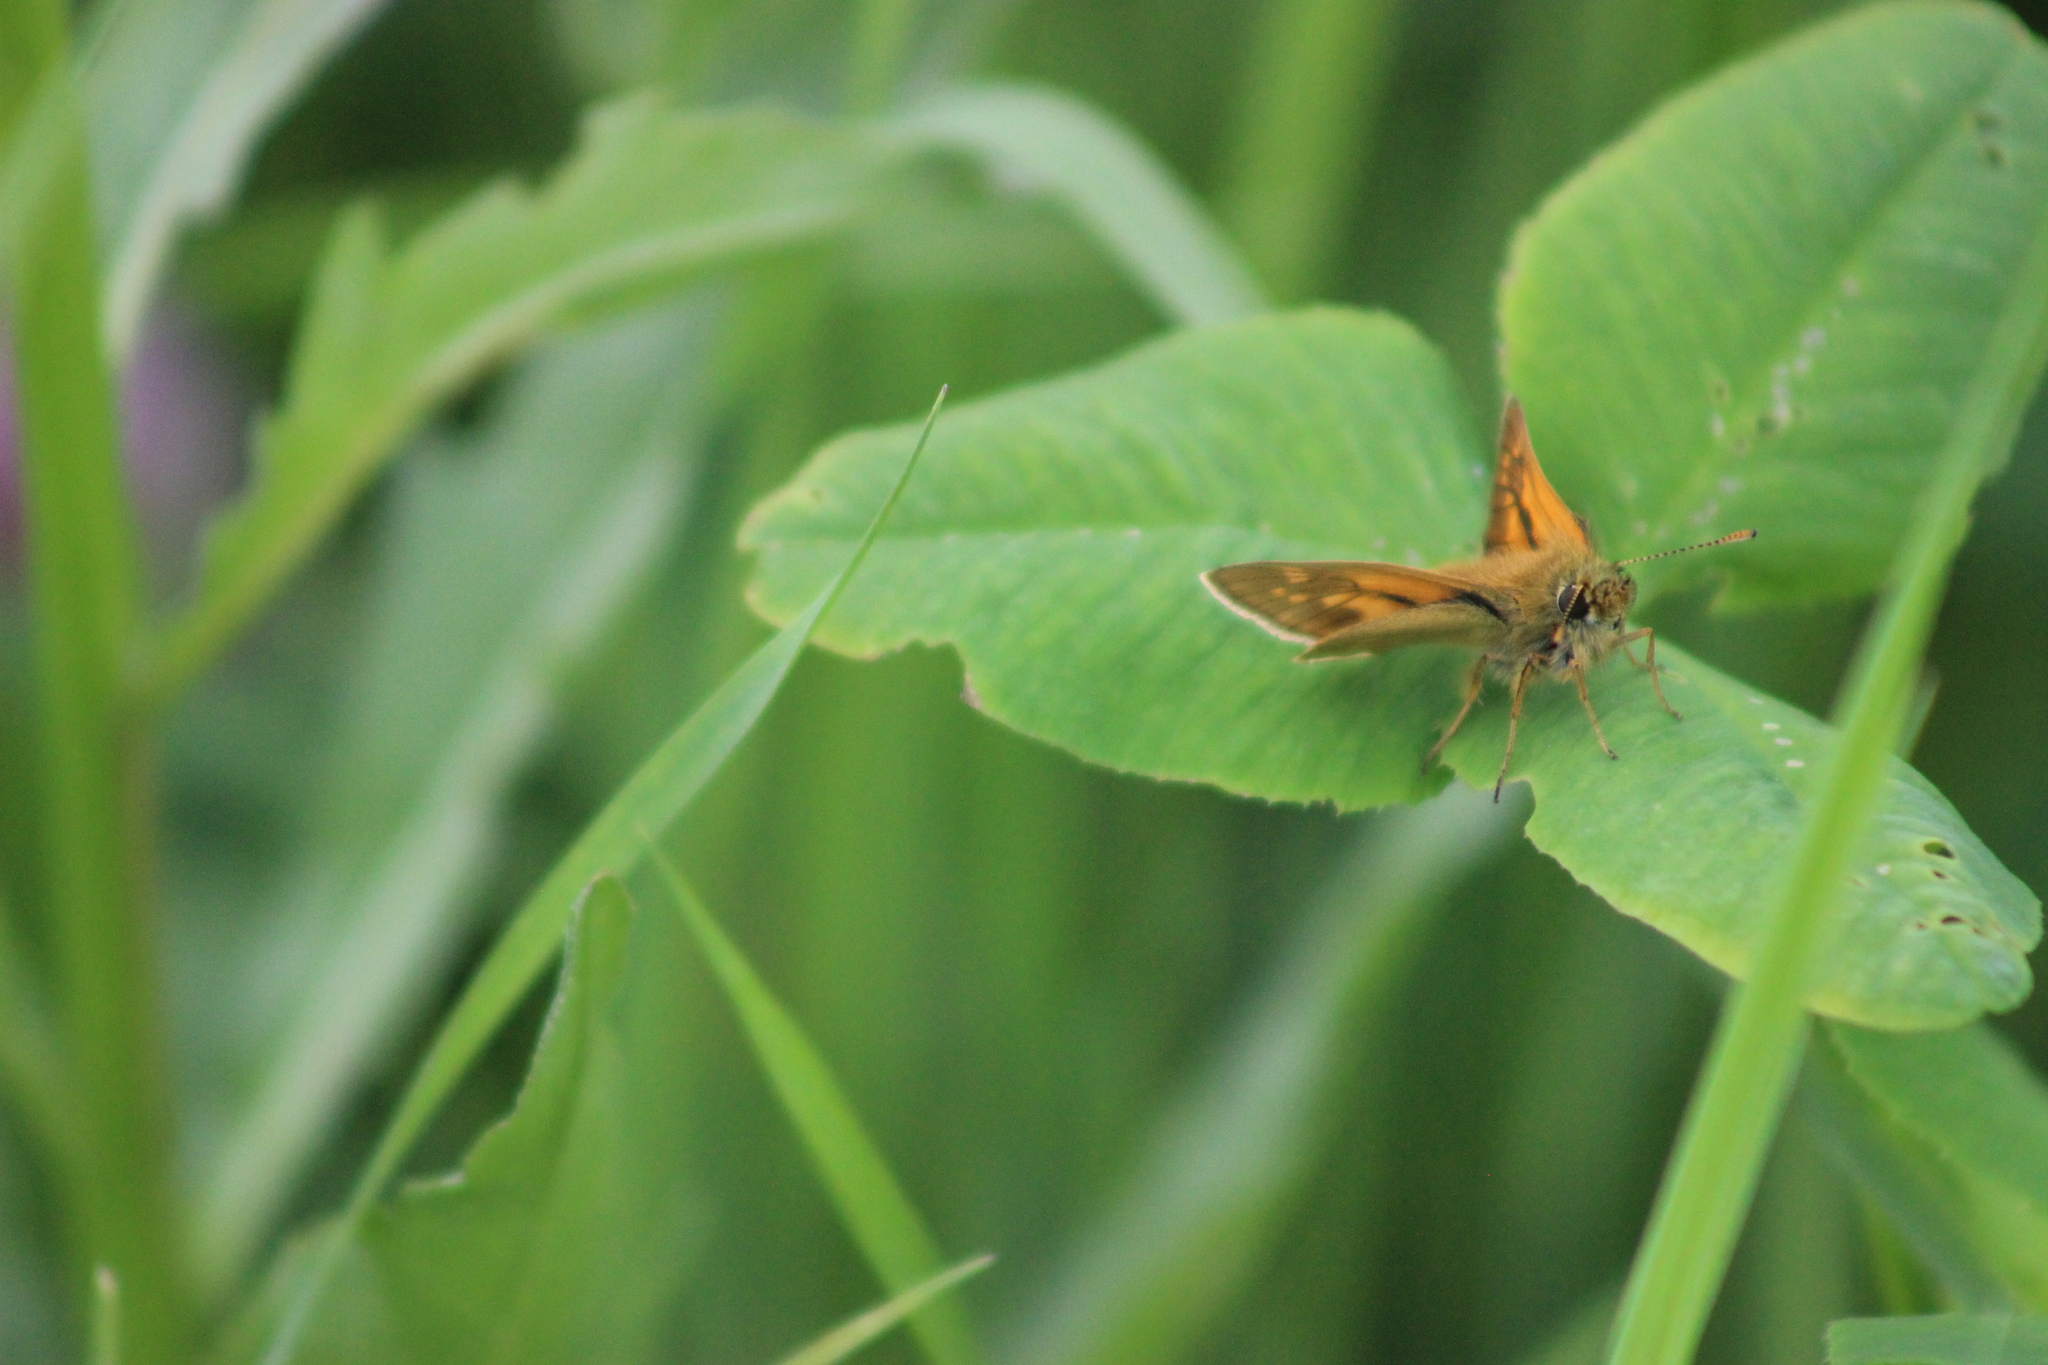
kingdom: Animalia
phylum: Arthropoda
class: Insecta
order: Lepidoptera
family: Hesperiidae
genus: Ochlodes
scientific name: Ochlodes venata
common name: Large skipper
